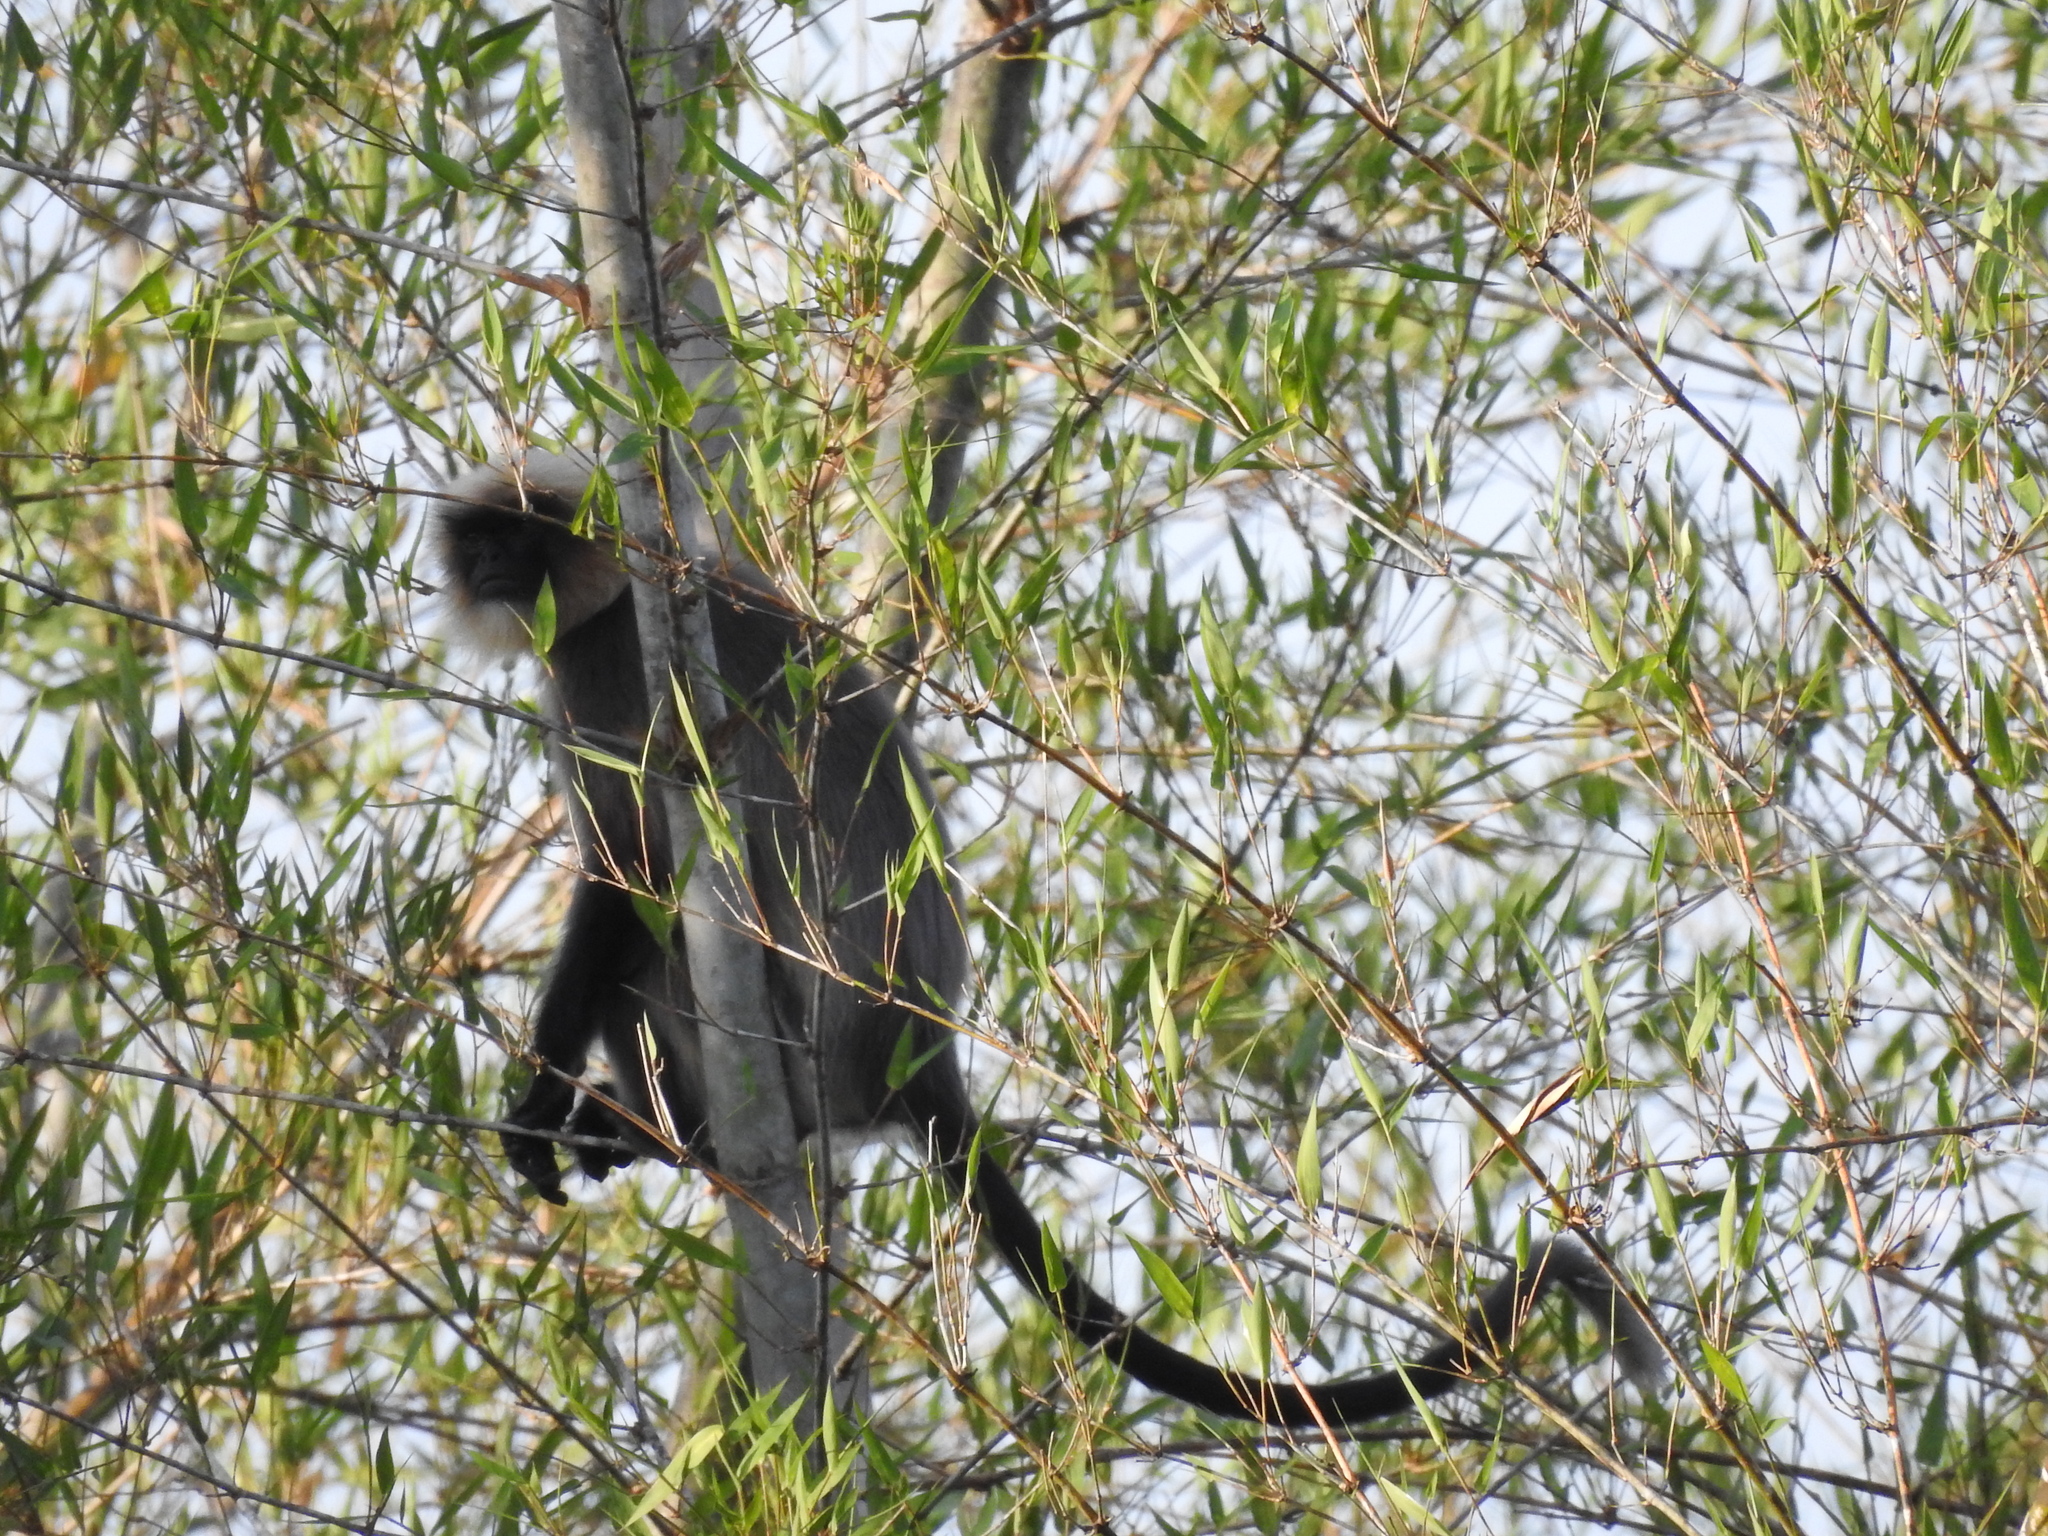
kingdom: Animalia
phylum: Chordata
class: Mammalia
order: Primates
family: Cercopithecidae
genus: Semnopithecus
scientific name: Semnopithecus hypoleucos
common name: Black-footed gray langur
